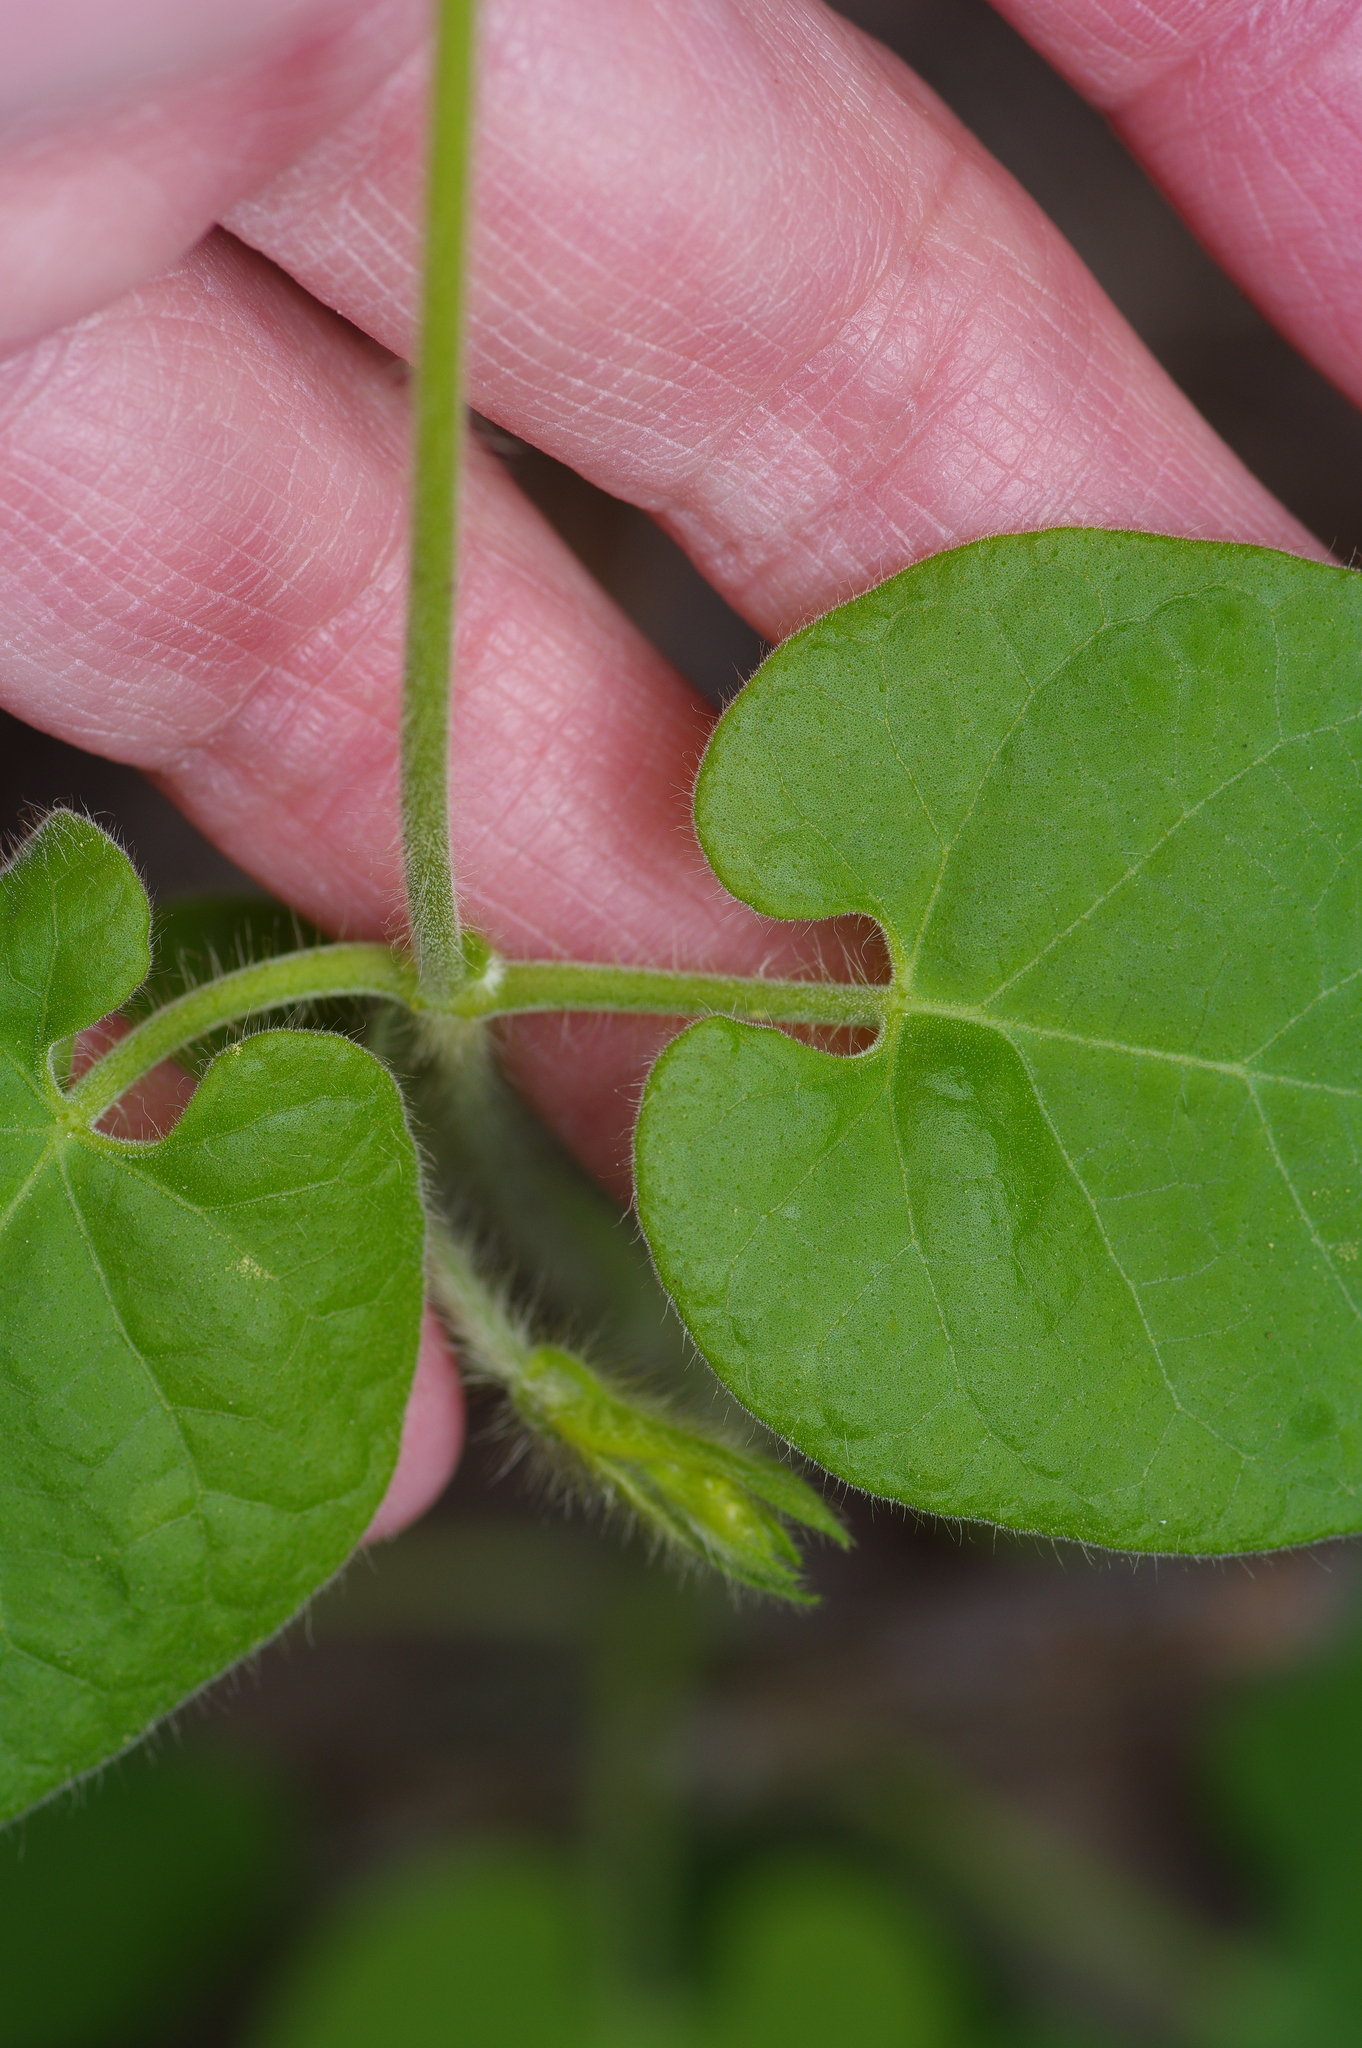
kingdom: Plantae
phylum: Tracheophyta
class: Magnoliopsida
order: Gentianales
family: Apocynaceae
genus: Dictyanthus
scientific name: Dictyanthus reticulatus
